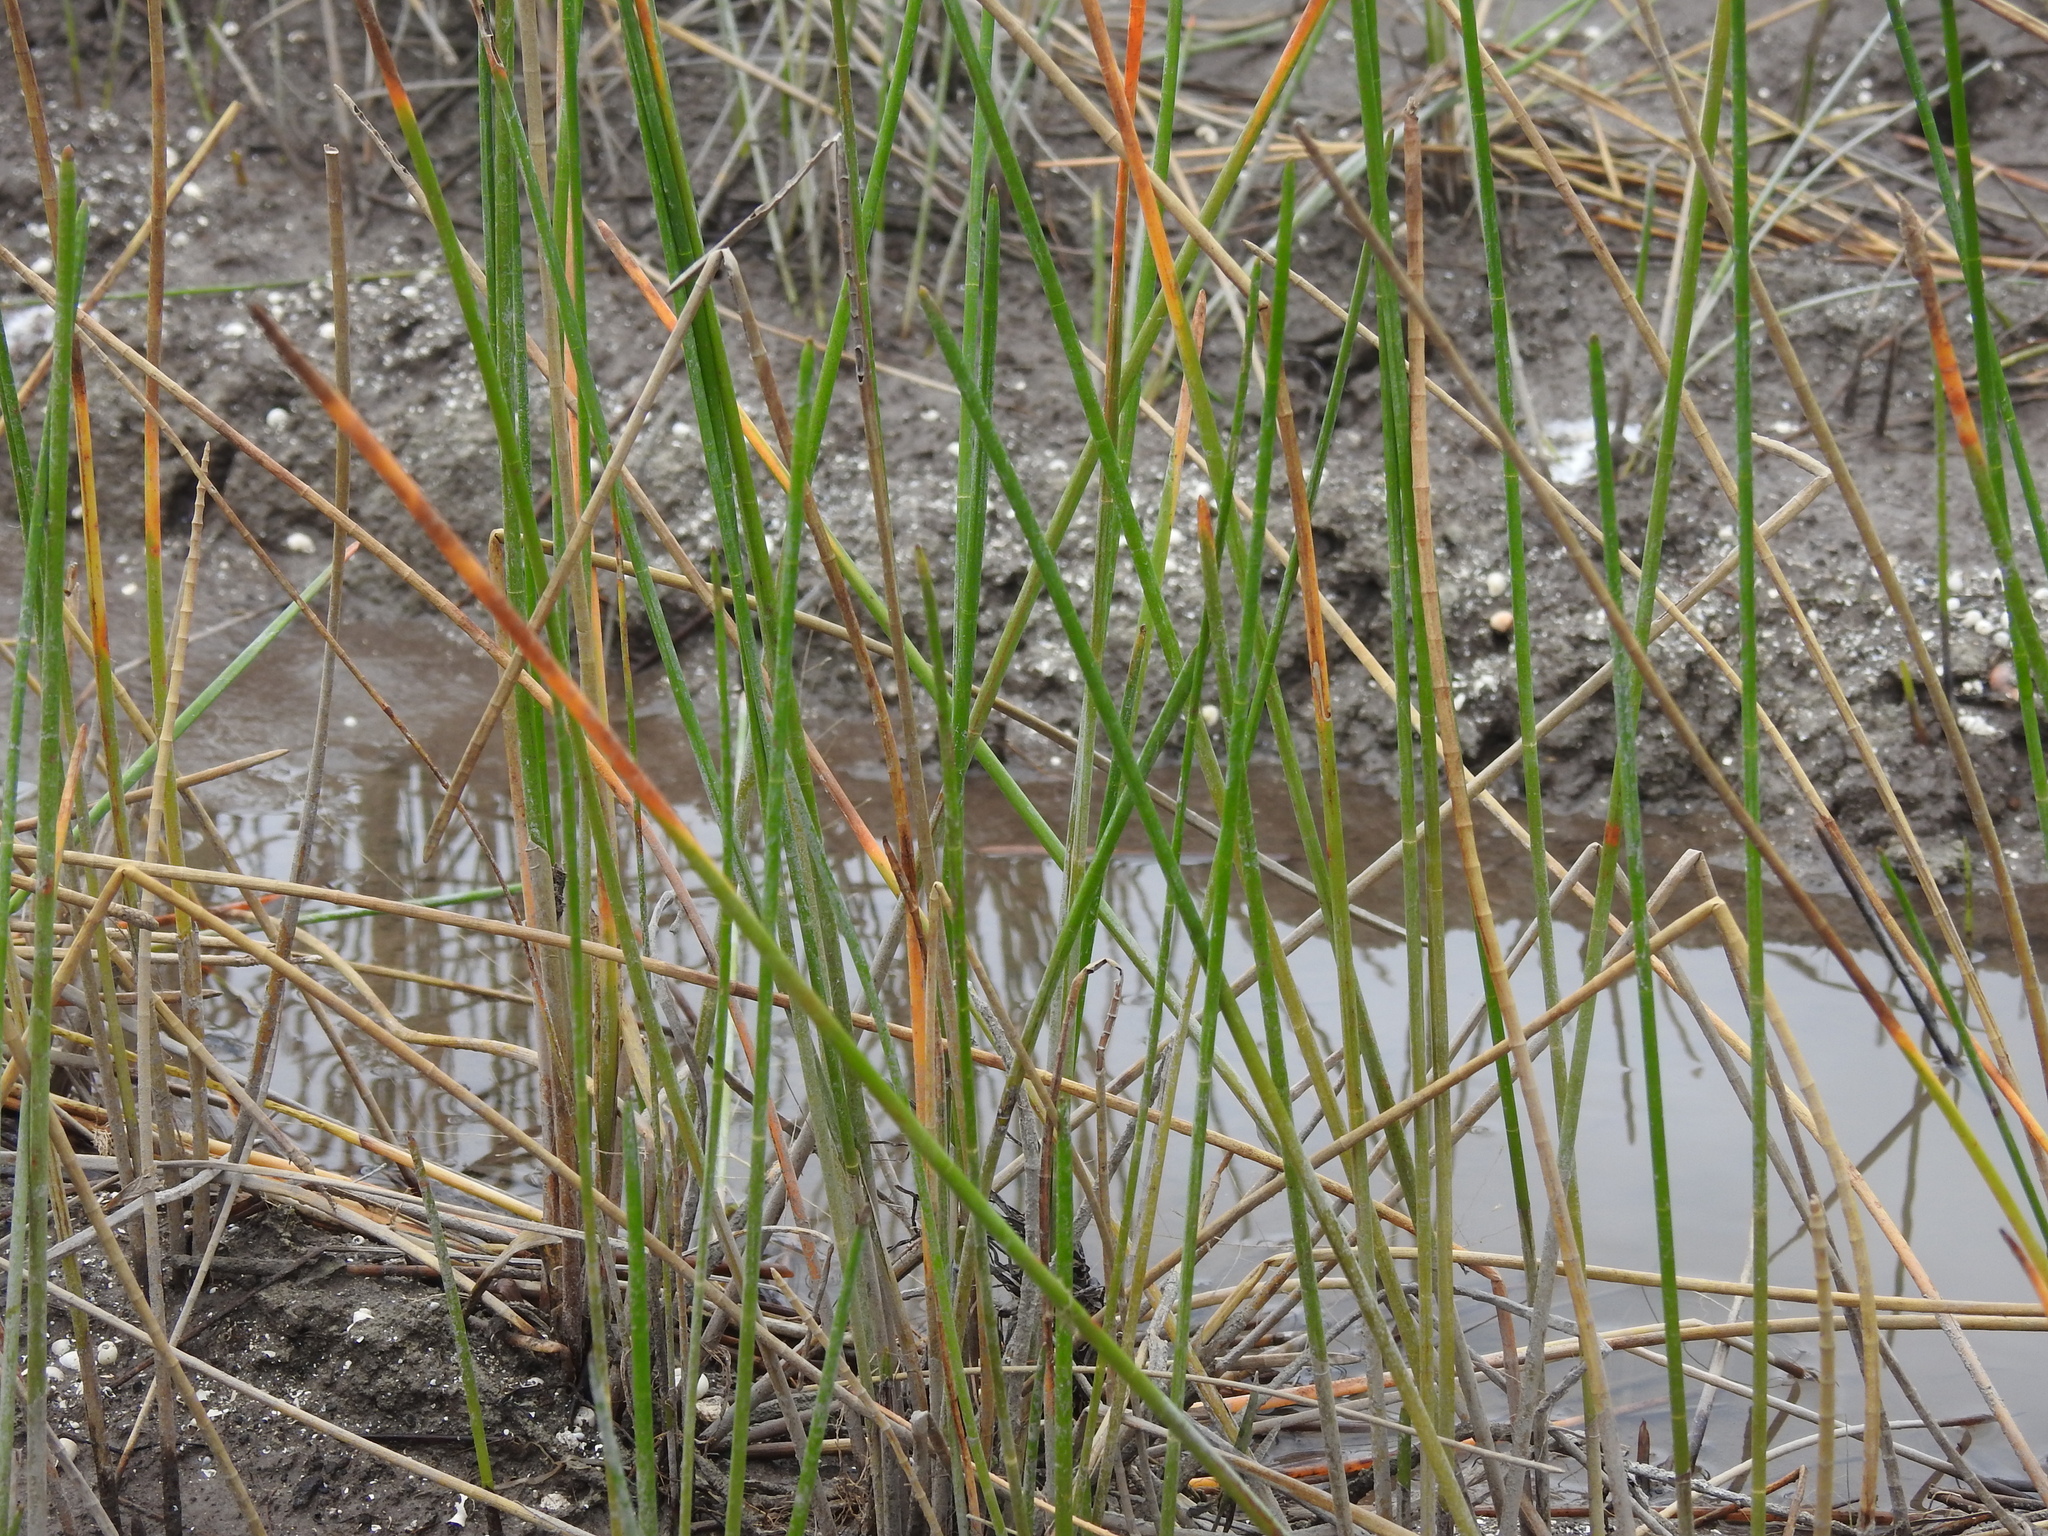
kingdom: Plantae
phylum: Tracheophyta
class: Liliopsida
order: Poales
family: Cyperaceae
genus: Eleocharis
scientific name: Eleocharis interstincta
